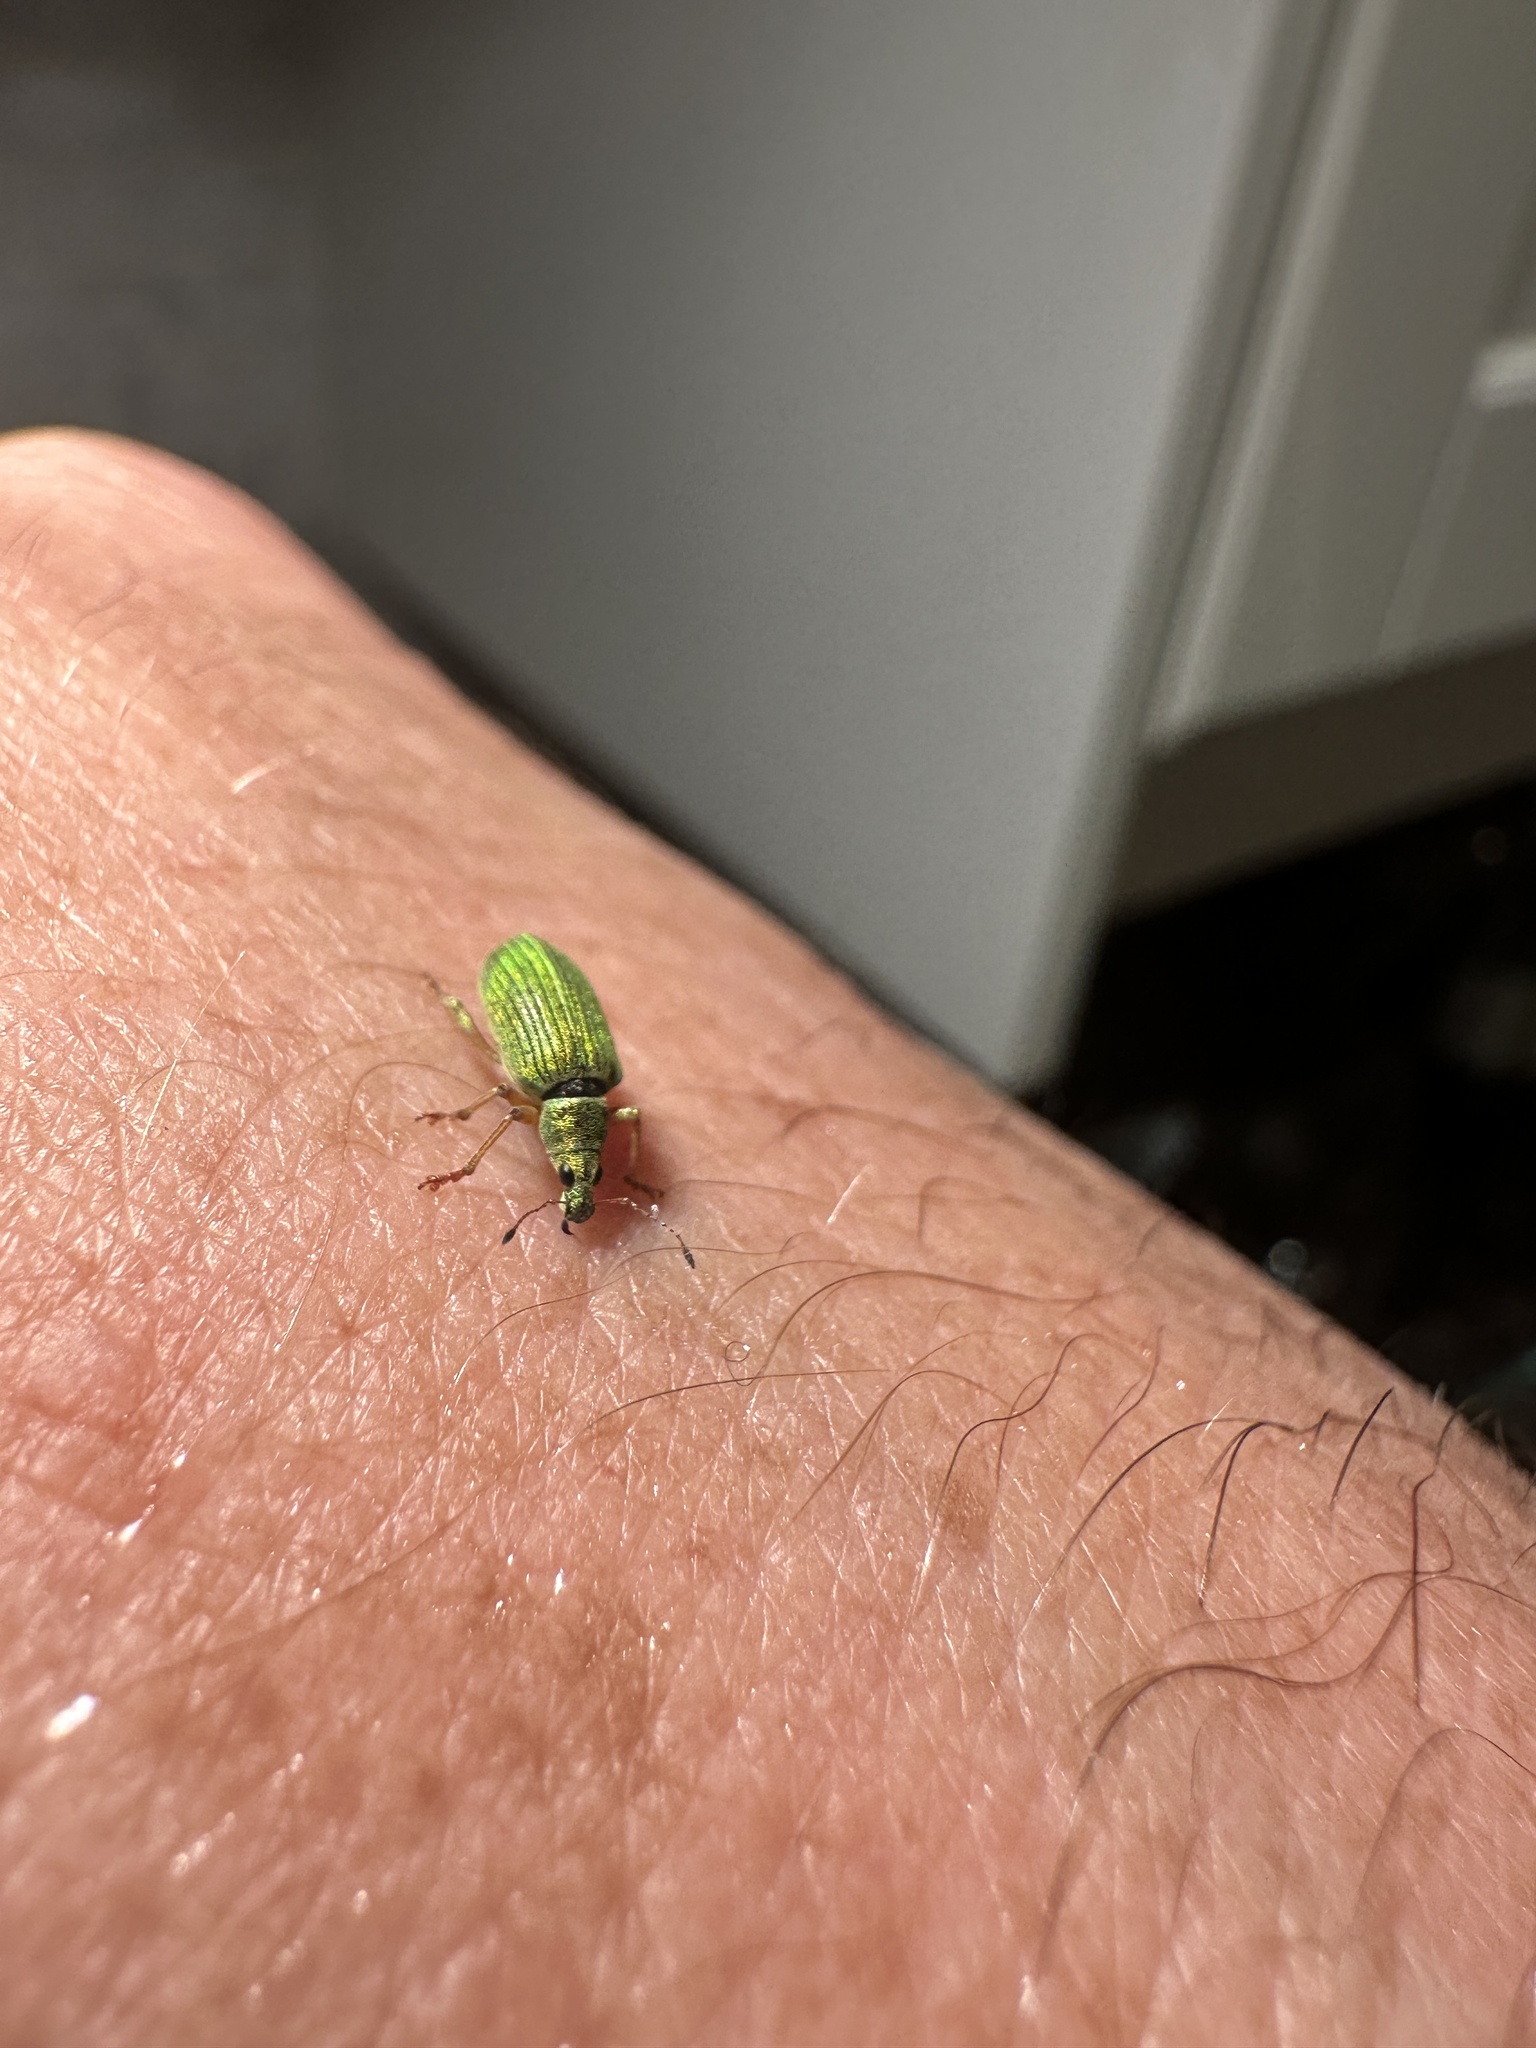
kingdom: Animalia
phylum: Arthropoda
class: Insecta
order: Coleoptera
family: Curculionidae
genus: Polydrusus
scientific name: Polydrusus formosus
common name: Weevil
